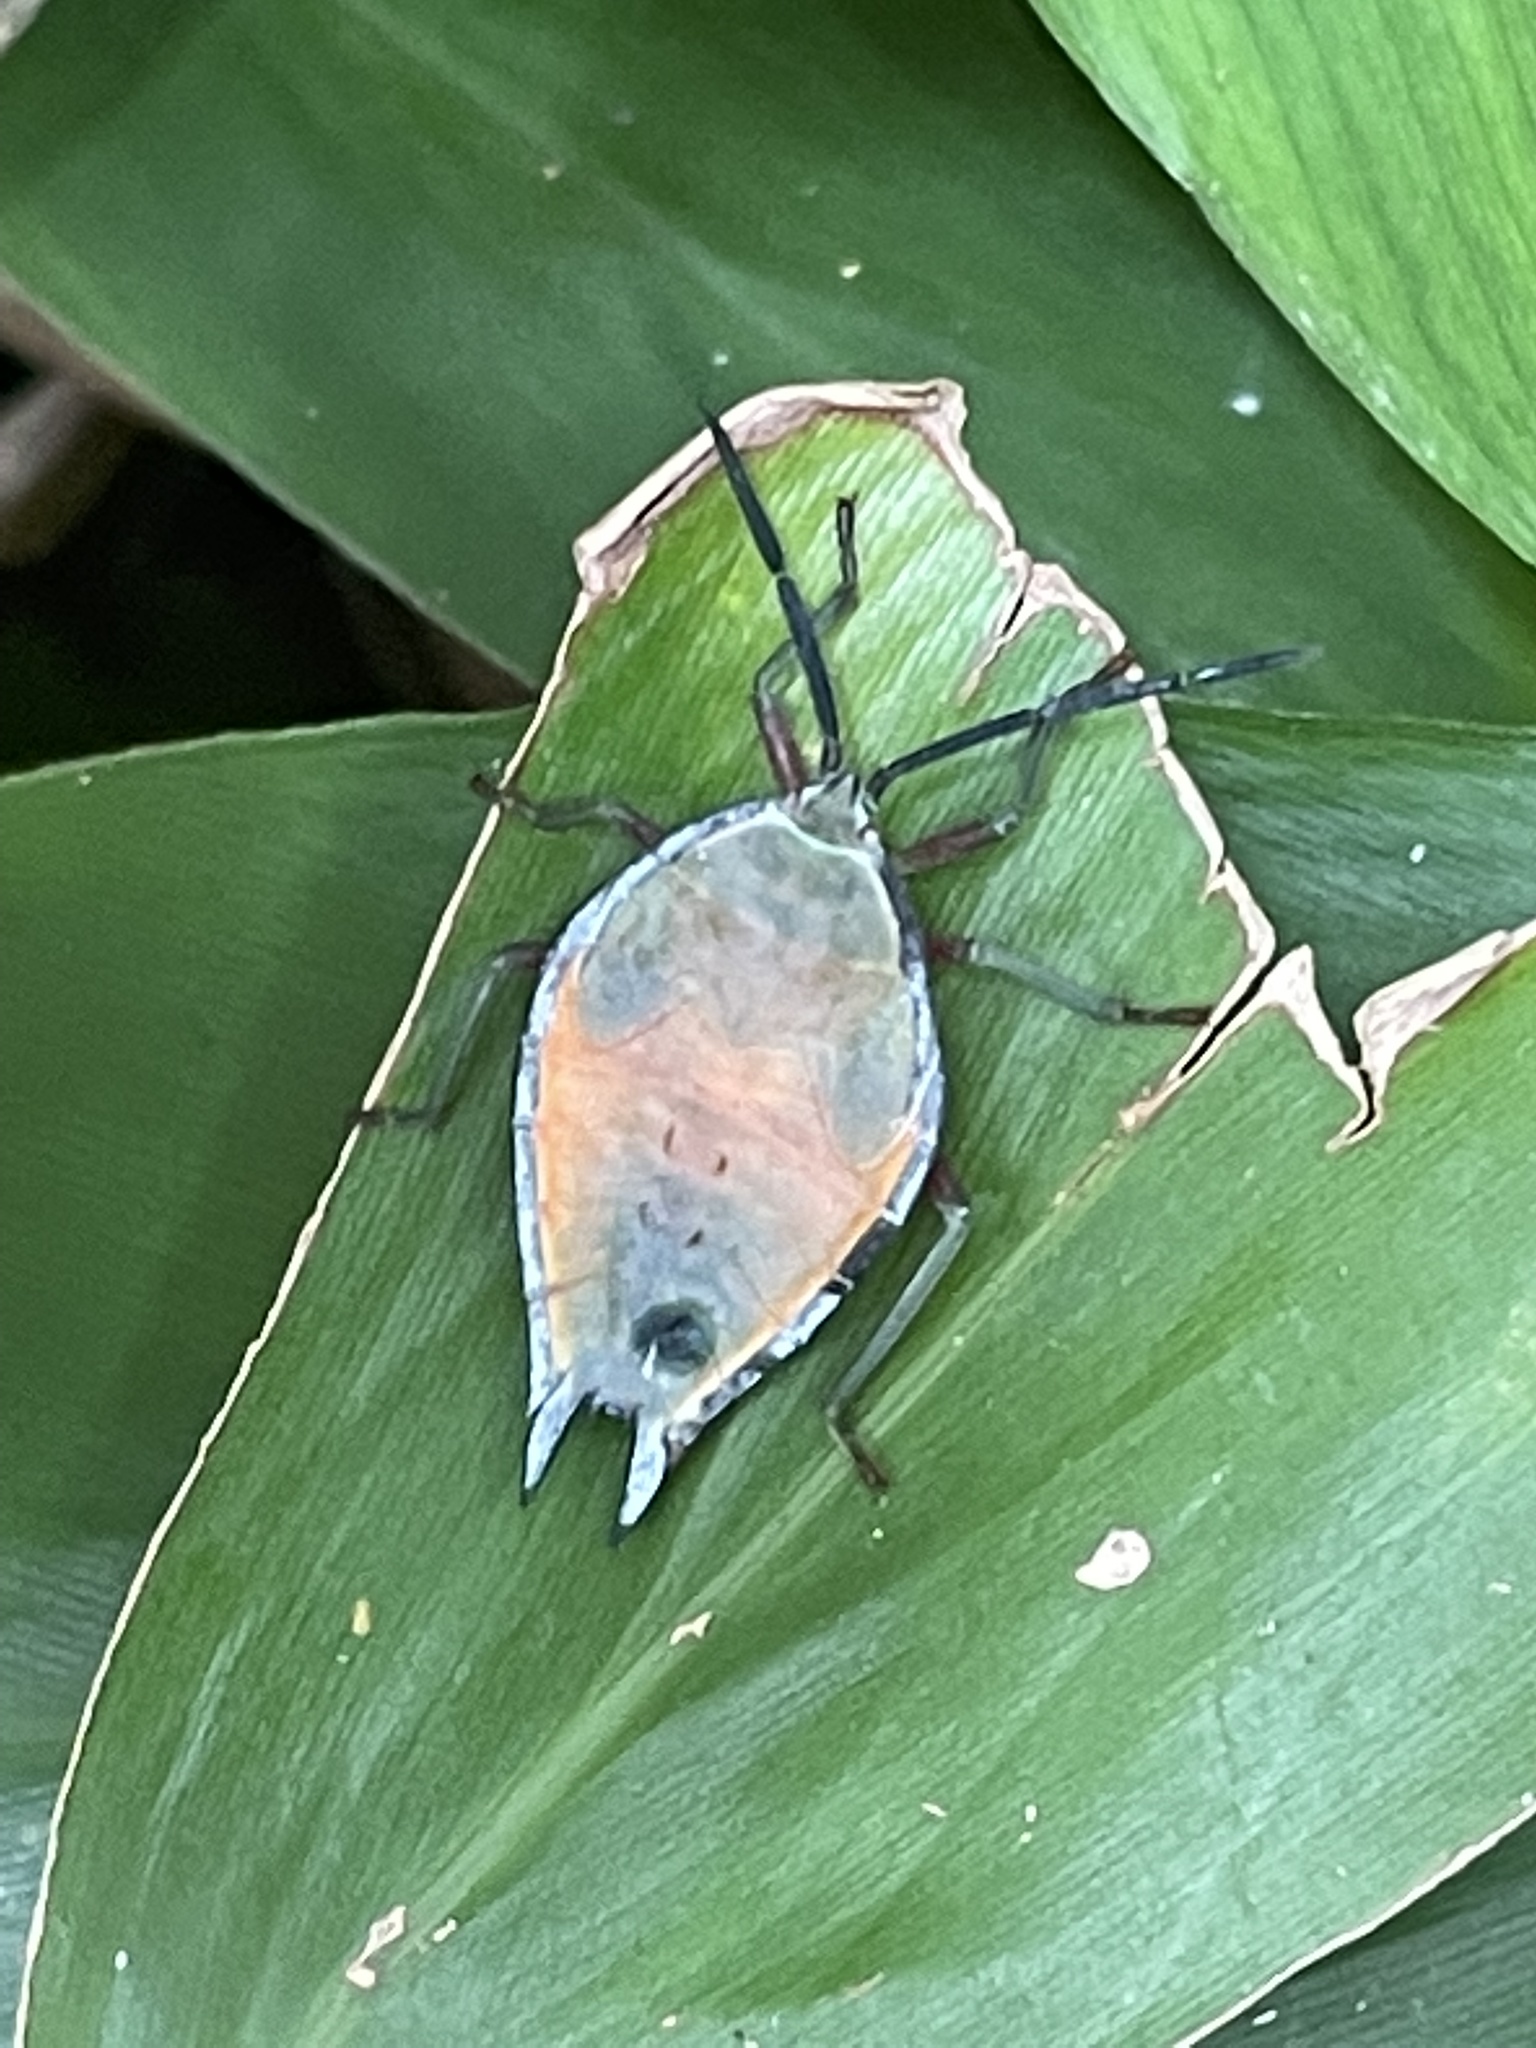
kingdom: Animalia
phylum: Arthropoda
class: Insecta
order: Hemiptera
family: Tessaratomidae
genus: Lyramorpha
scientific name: Lyramorpha rosea
